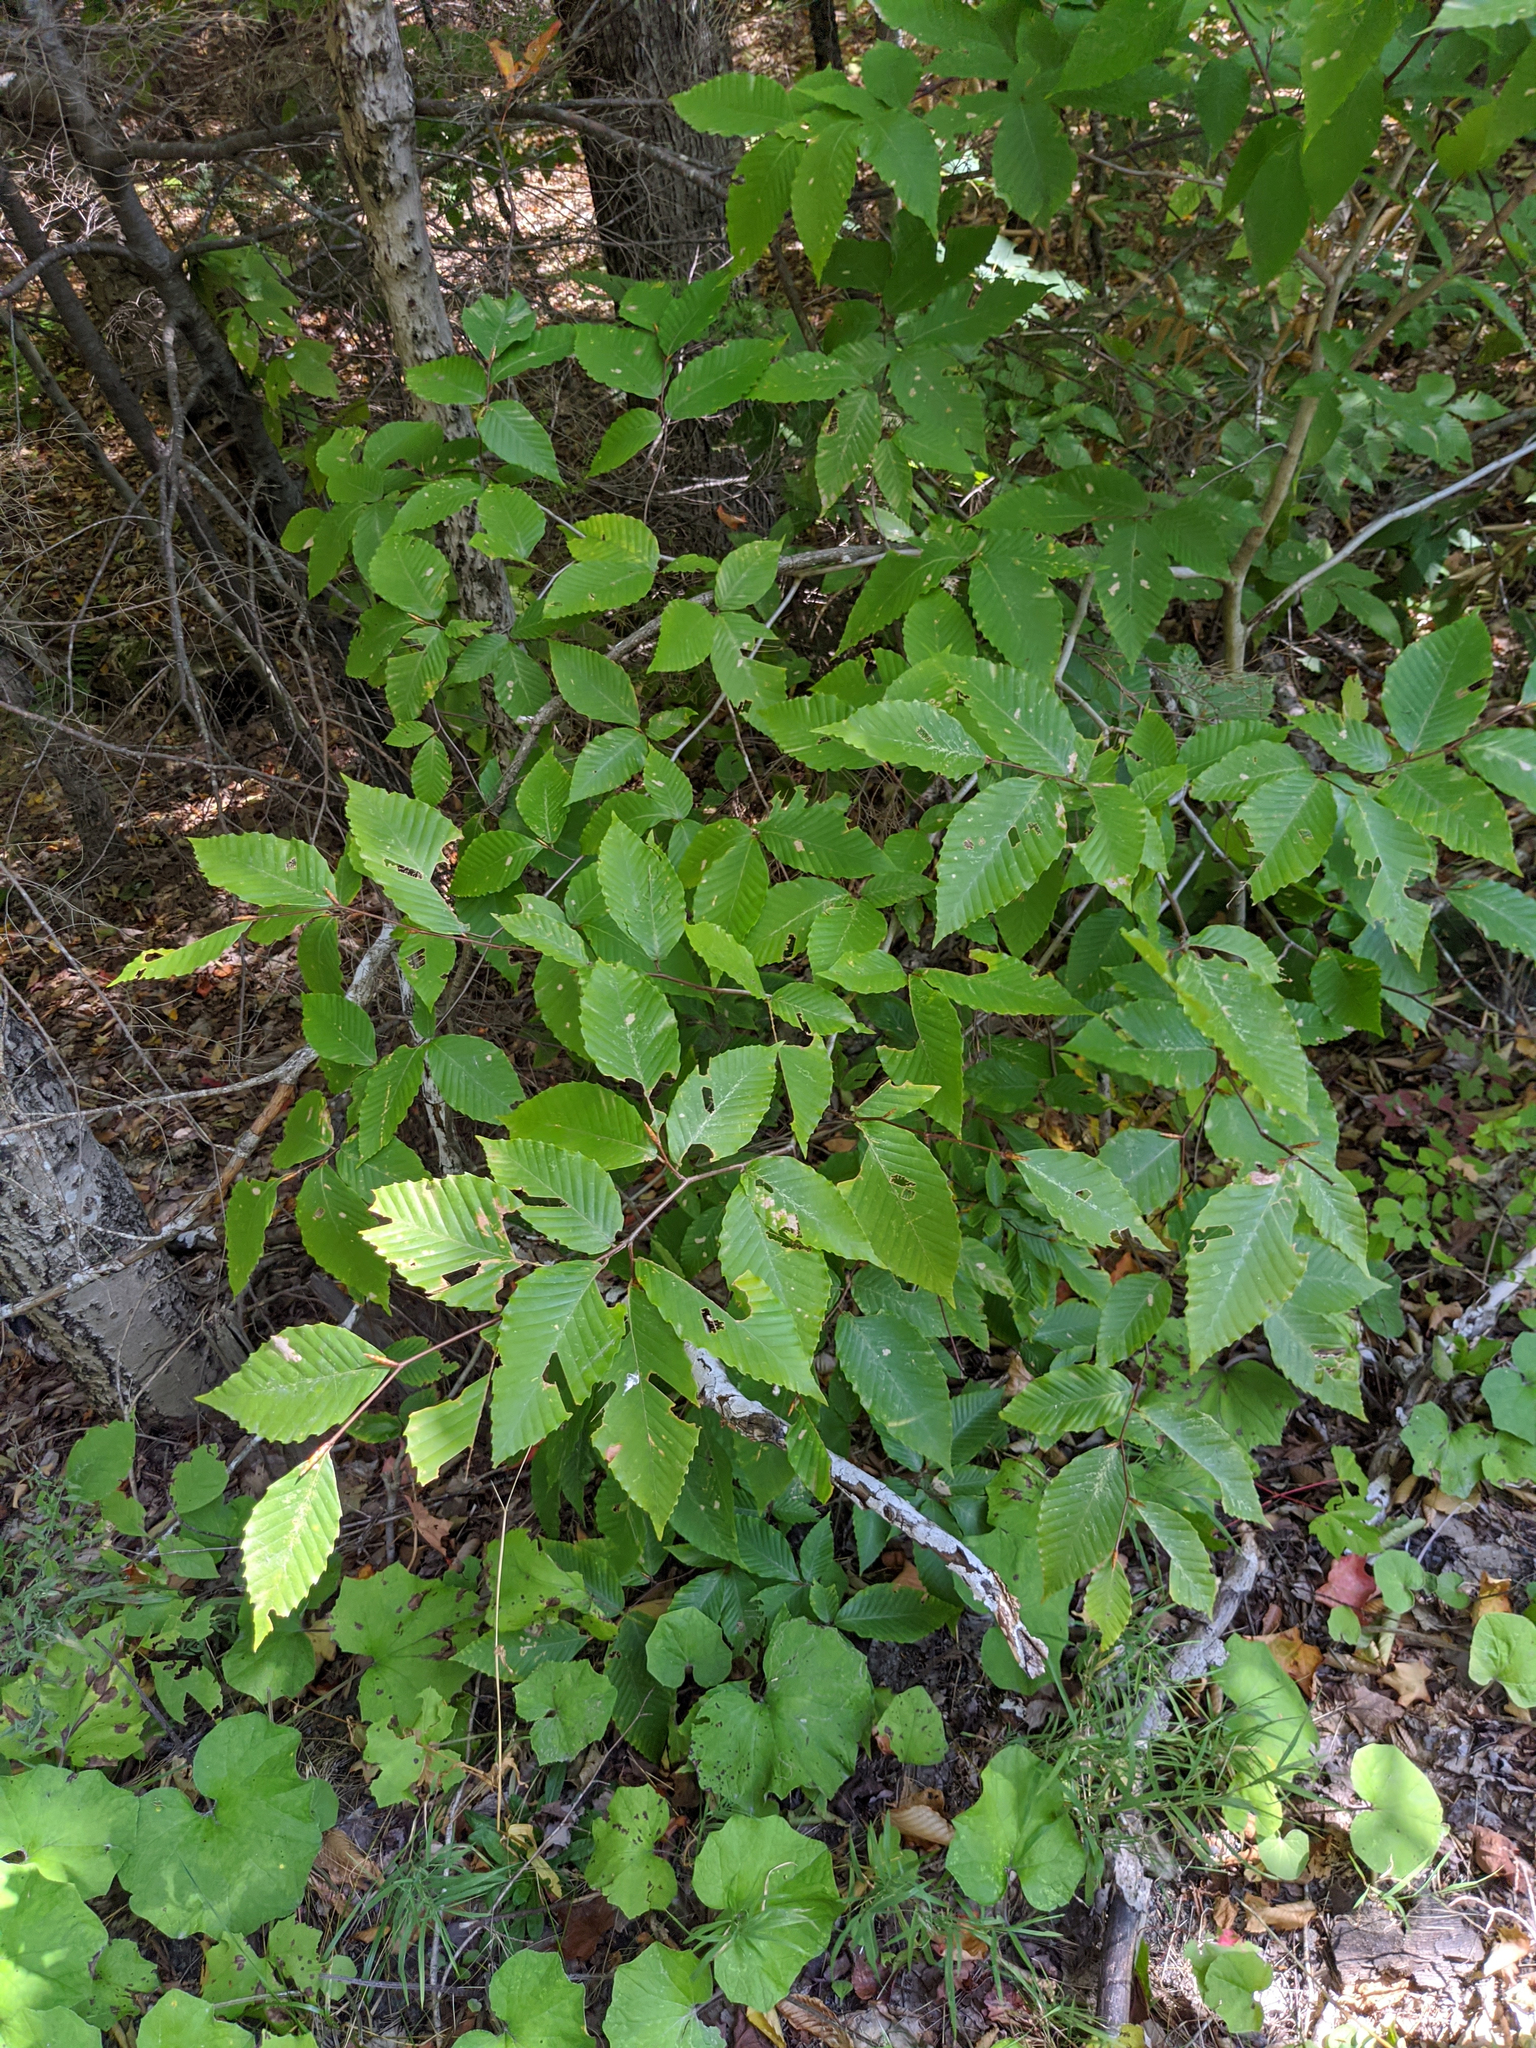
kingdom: Plantae
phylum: Tracheophyta
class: Magnoliopsida
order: Fagales
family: Fagaceae
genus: Fagus
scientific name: Fagus grandifolia
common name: American beech
